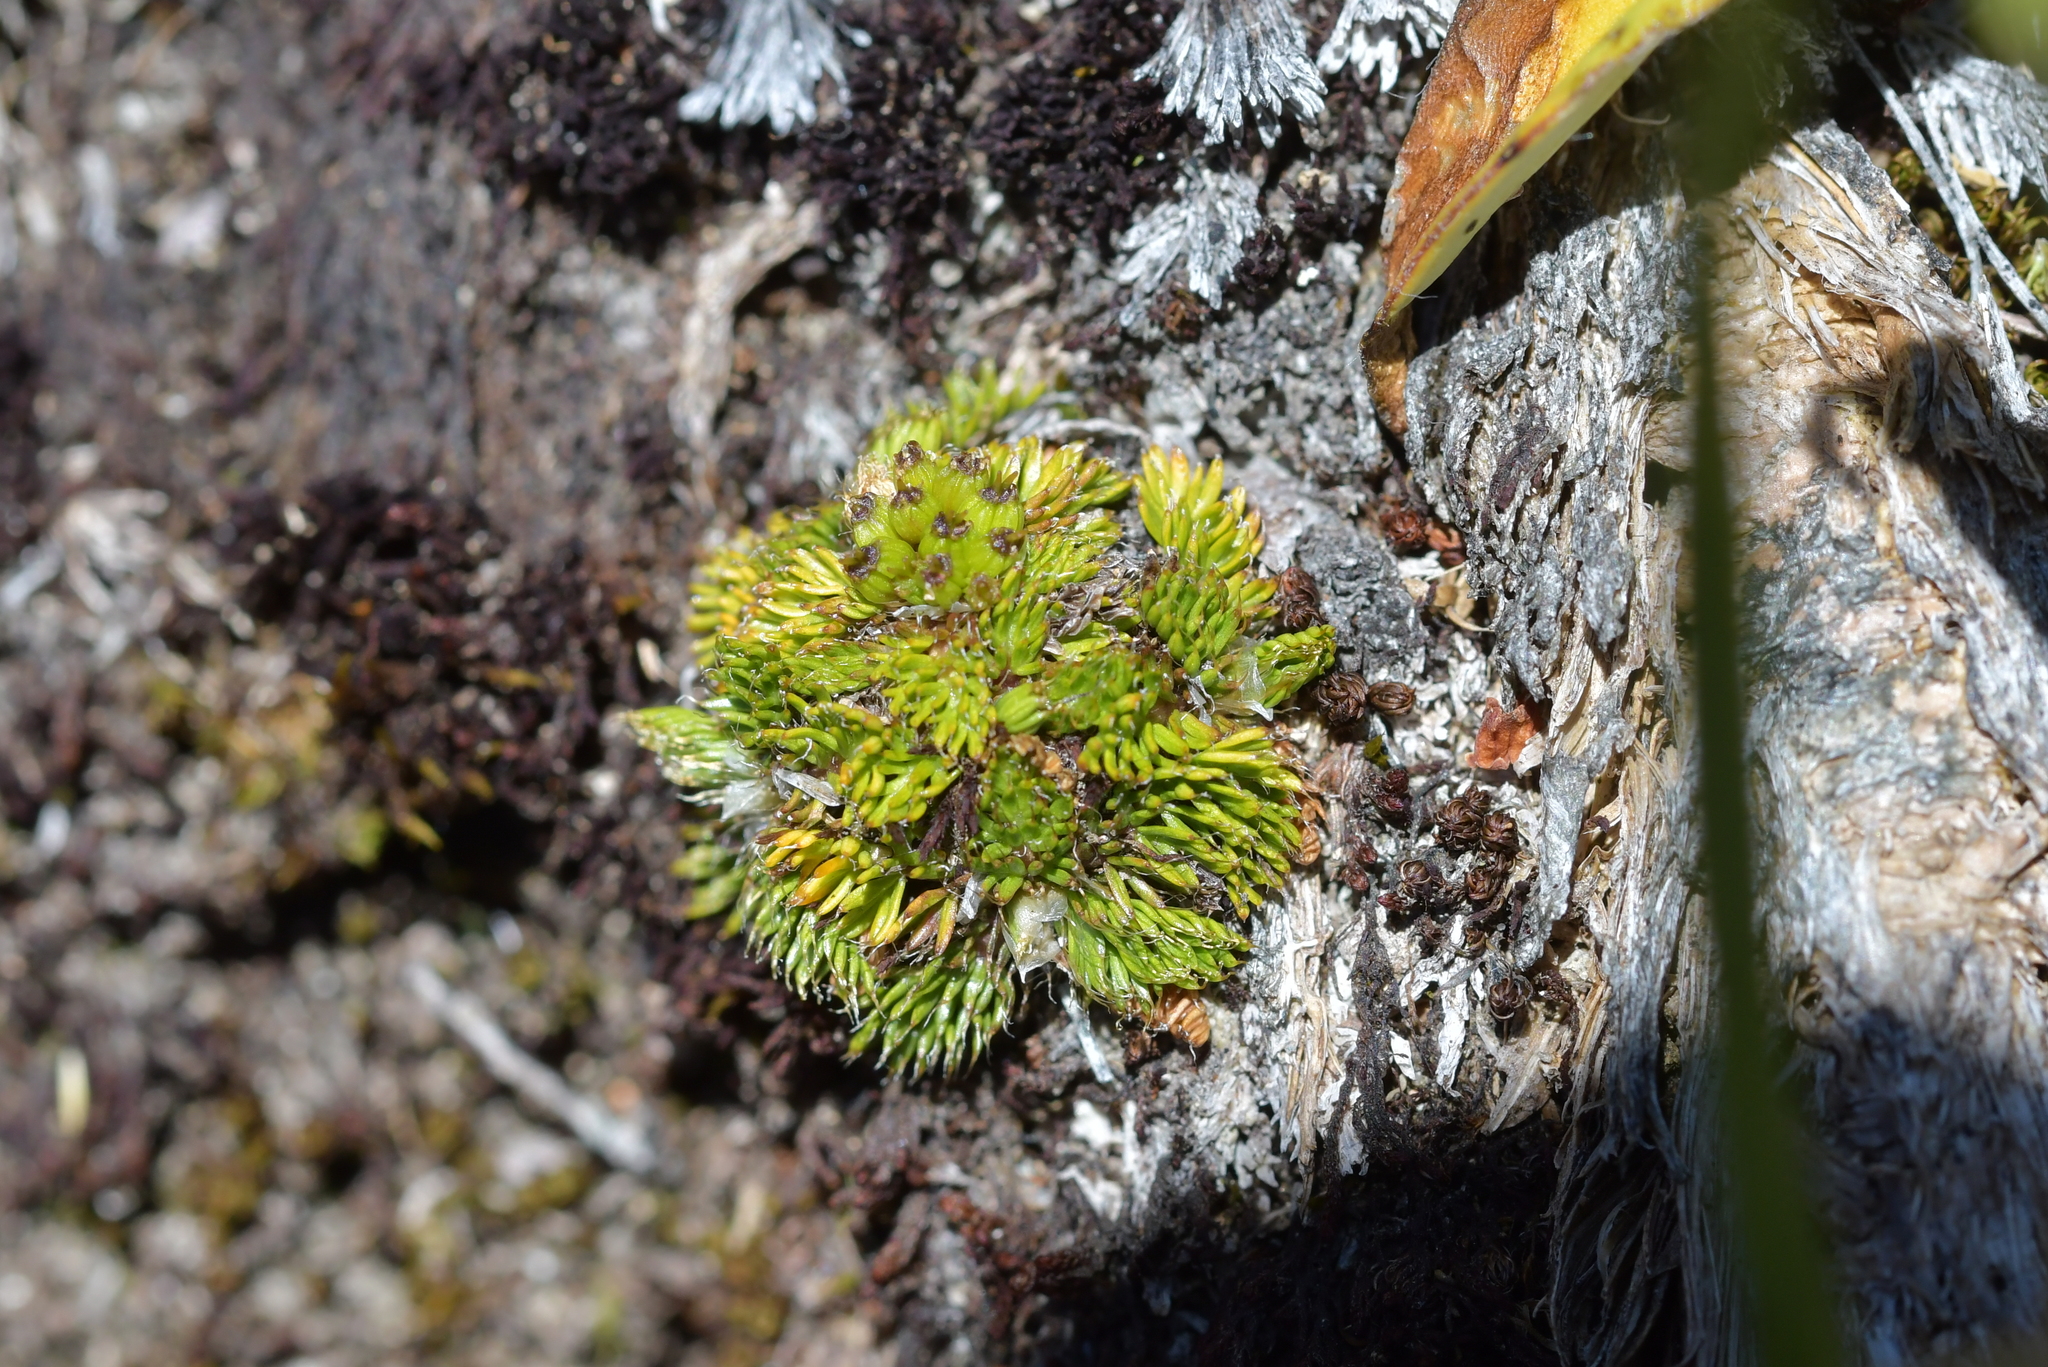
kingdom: Plantae
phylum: Tracheophyta
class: Magnoliopsida
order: Apiales
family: Apiaceae
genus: Anisotome
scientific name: Anisotome imbricata
